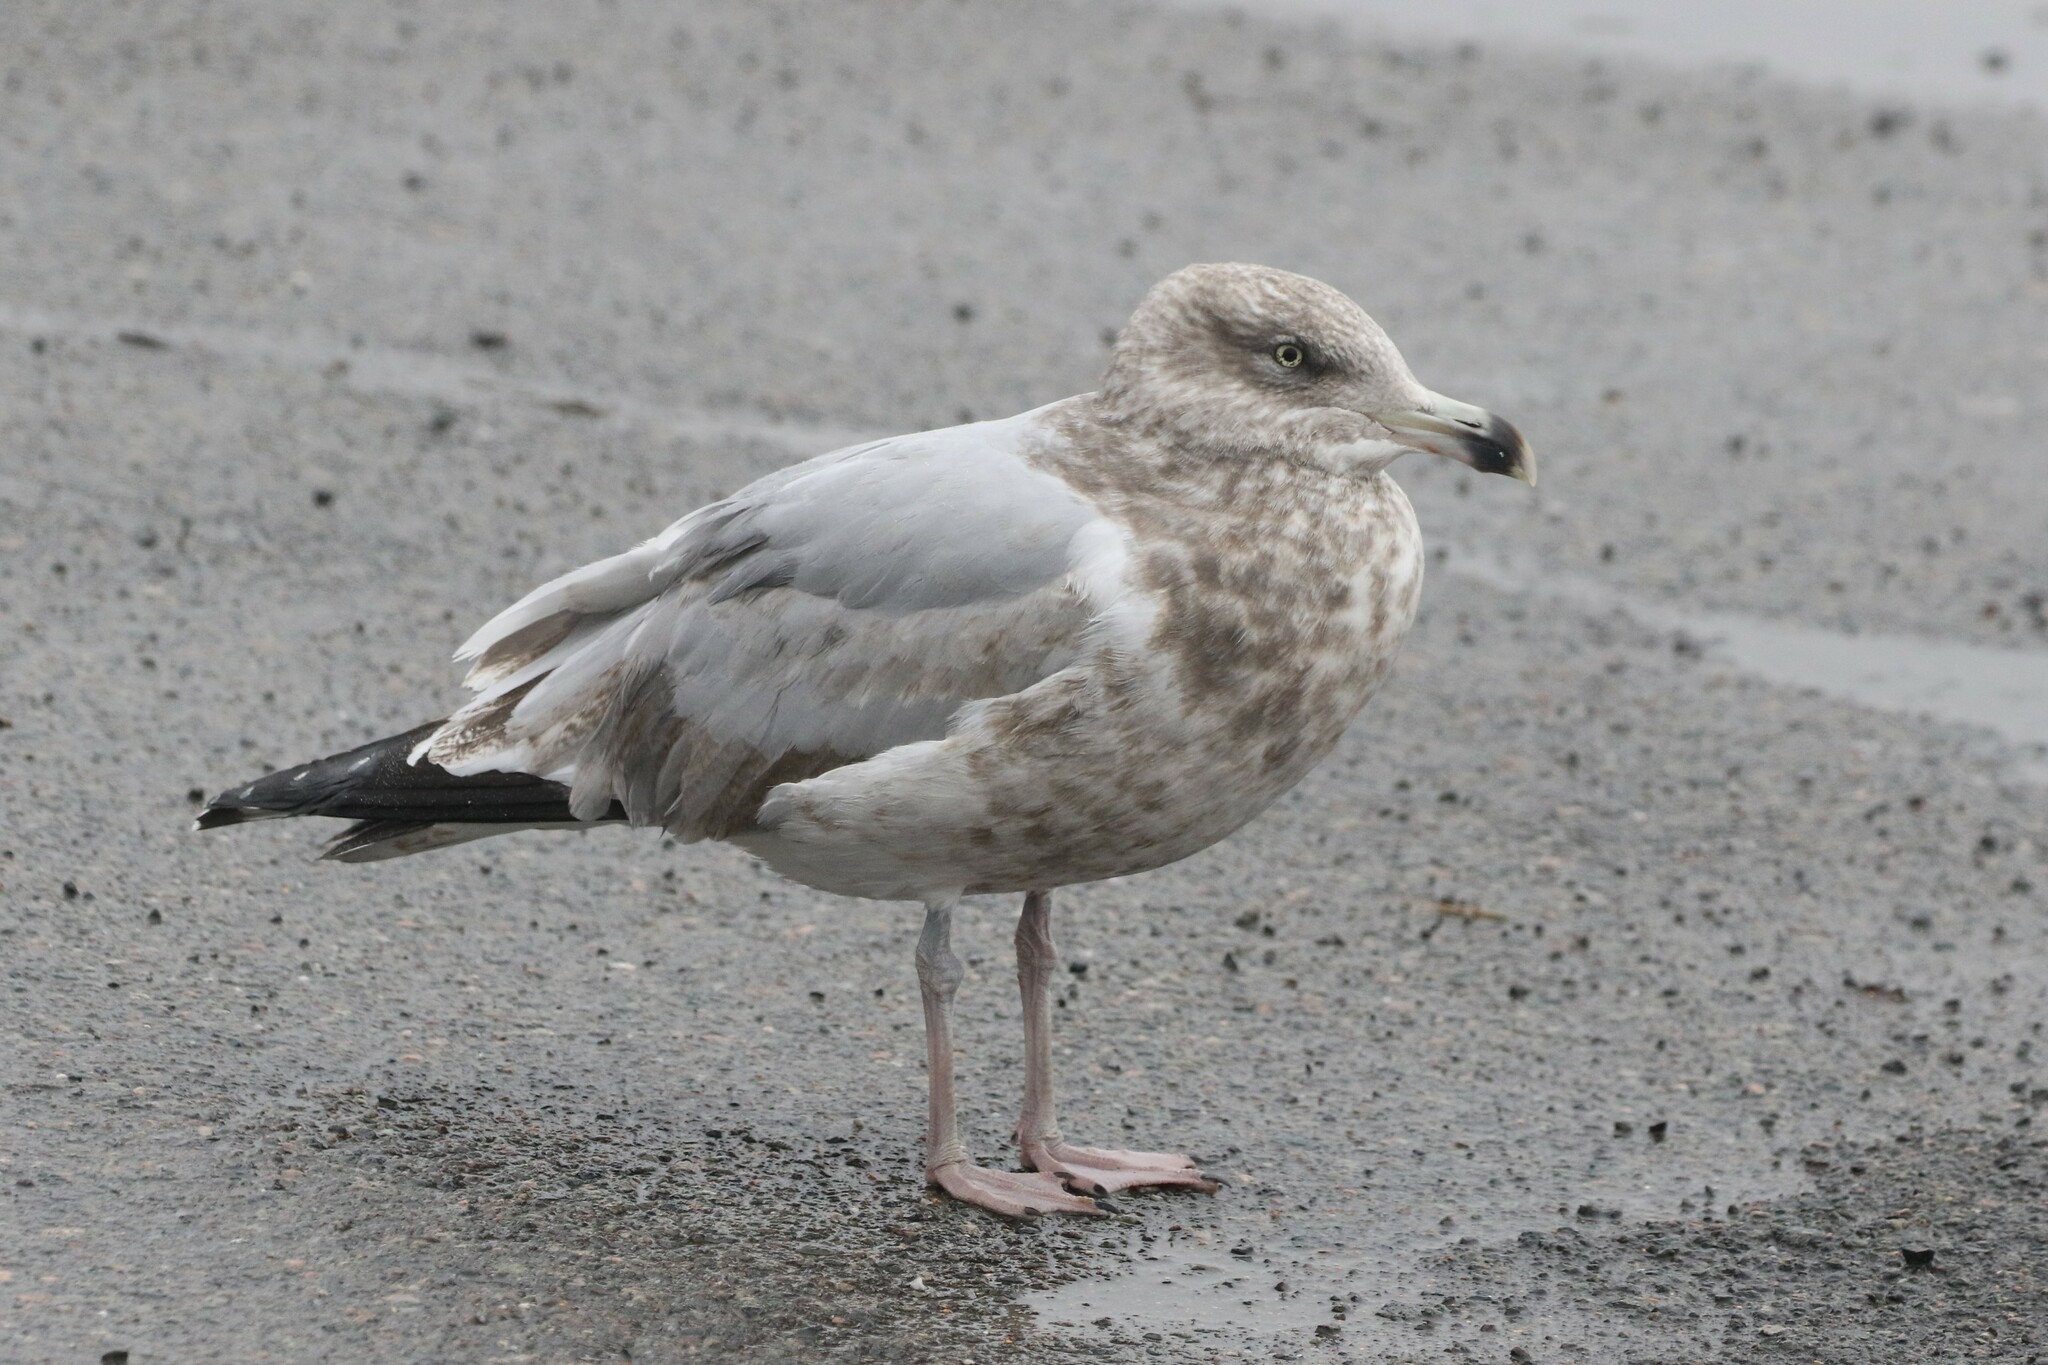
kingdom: Animalia
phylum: Chordata
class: Aves
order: Charadriiformes
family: Laridae
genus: Larus
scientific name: Larus argentatus
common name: Herring gull
